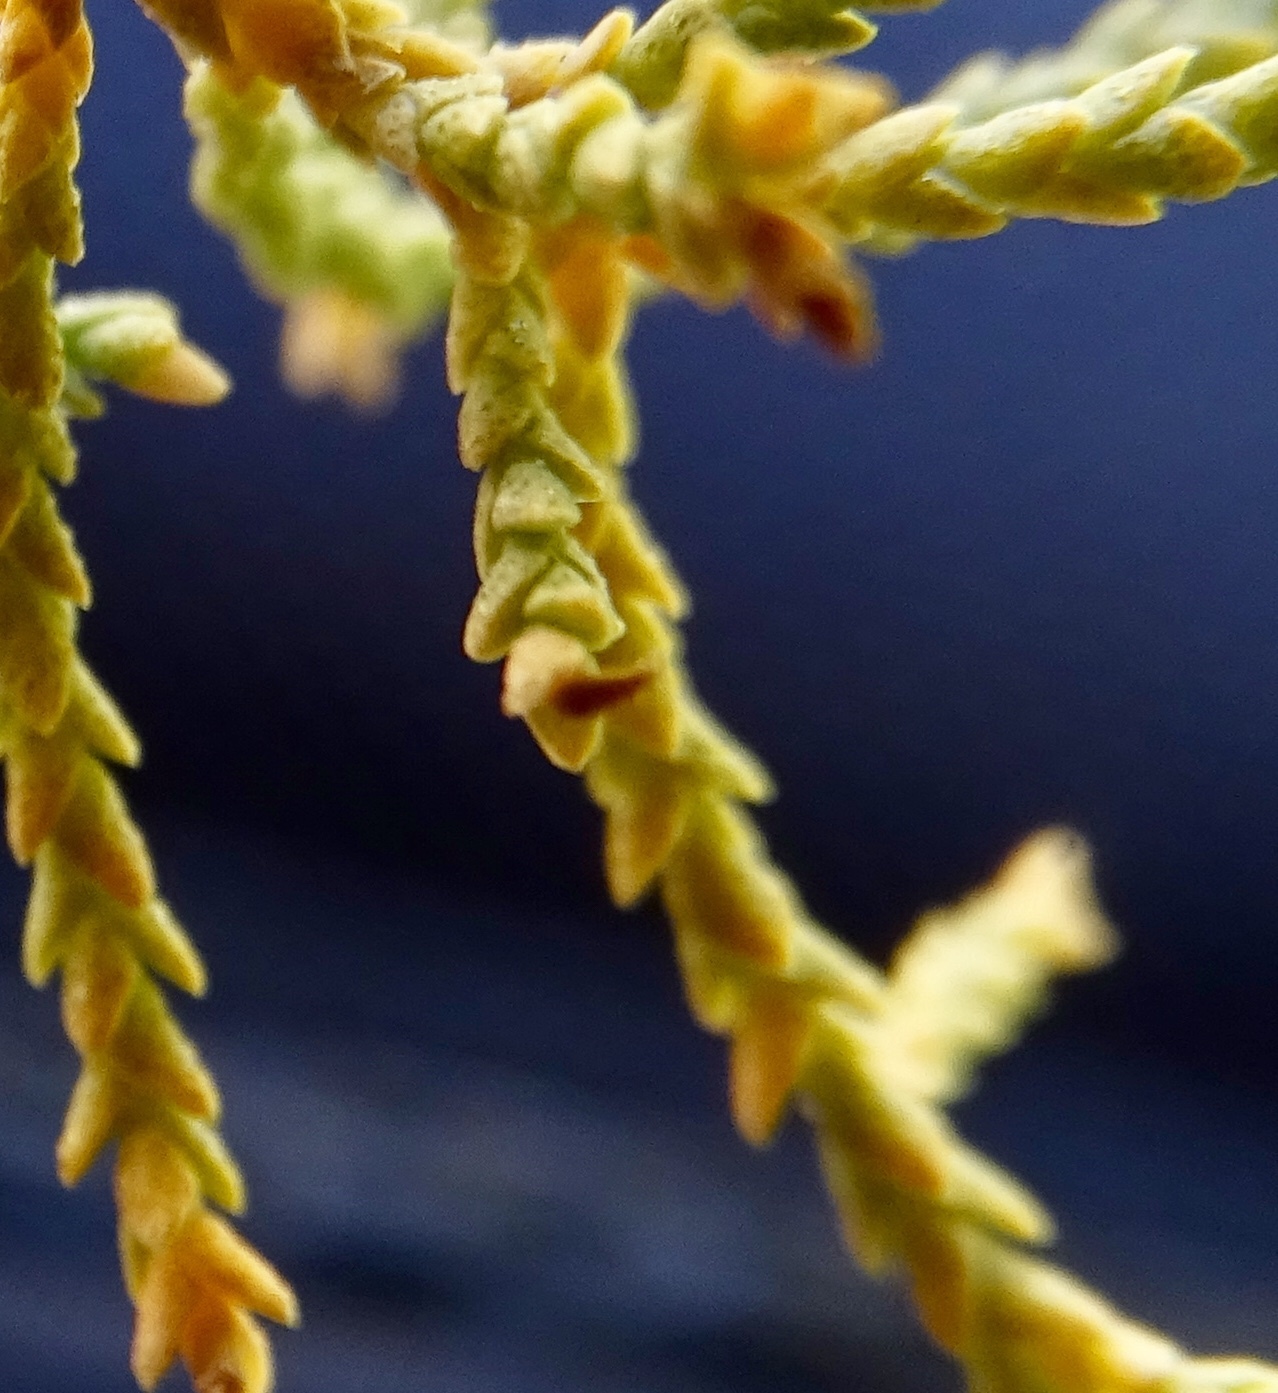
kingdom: Plantae
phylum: Tracheophyta
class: Magnoliopsida
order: Caryophyllales
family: Tamaricaceae
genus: Tamarix
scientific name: Tamarix ramosissima
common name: Pink tamarisk
